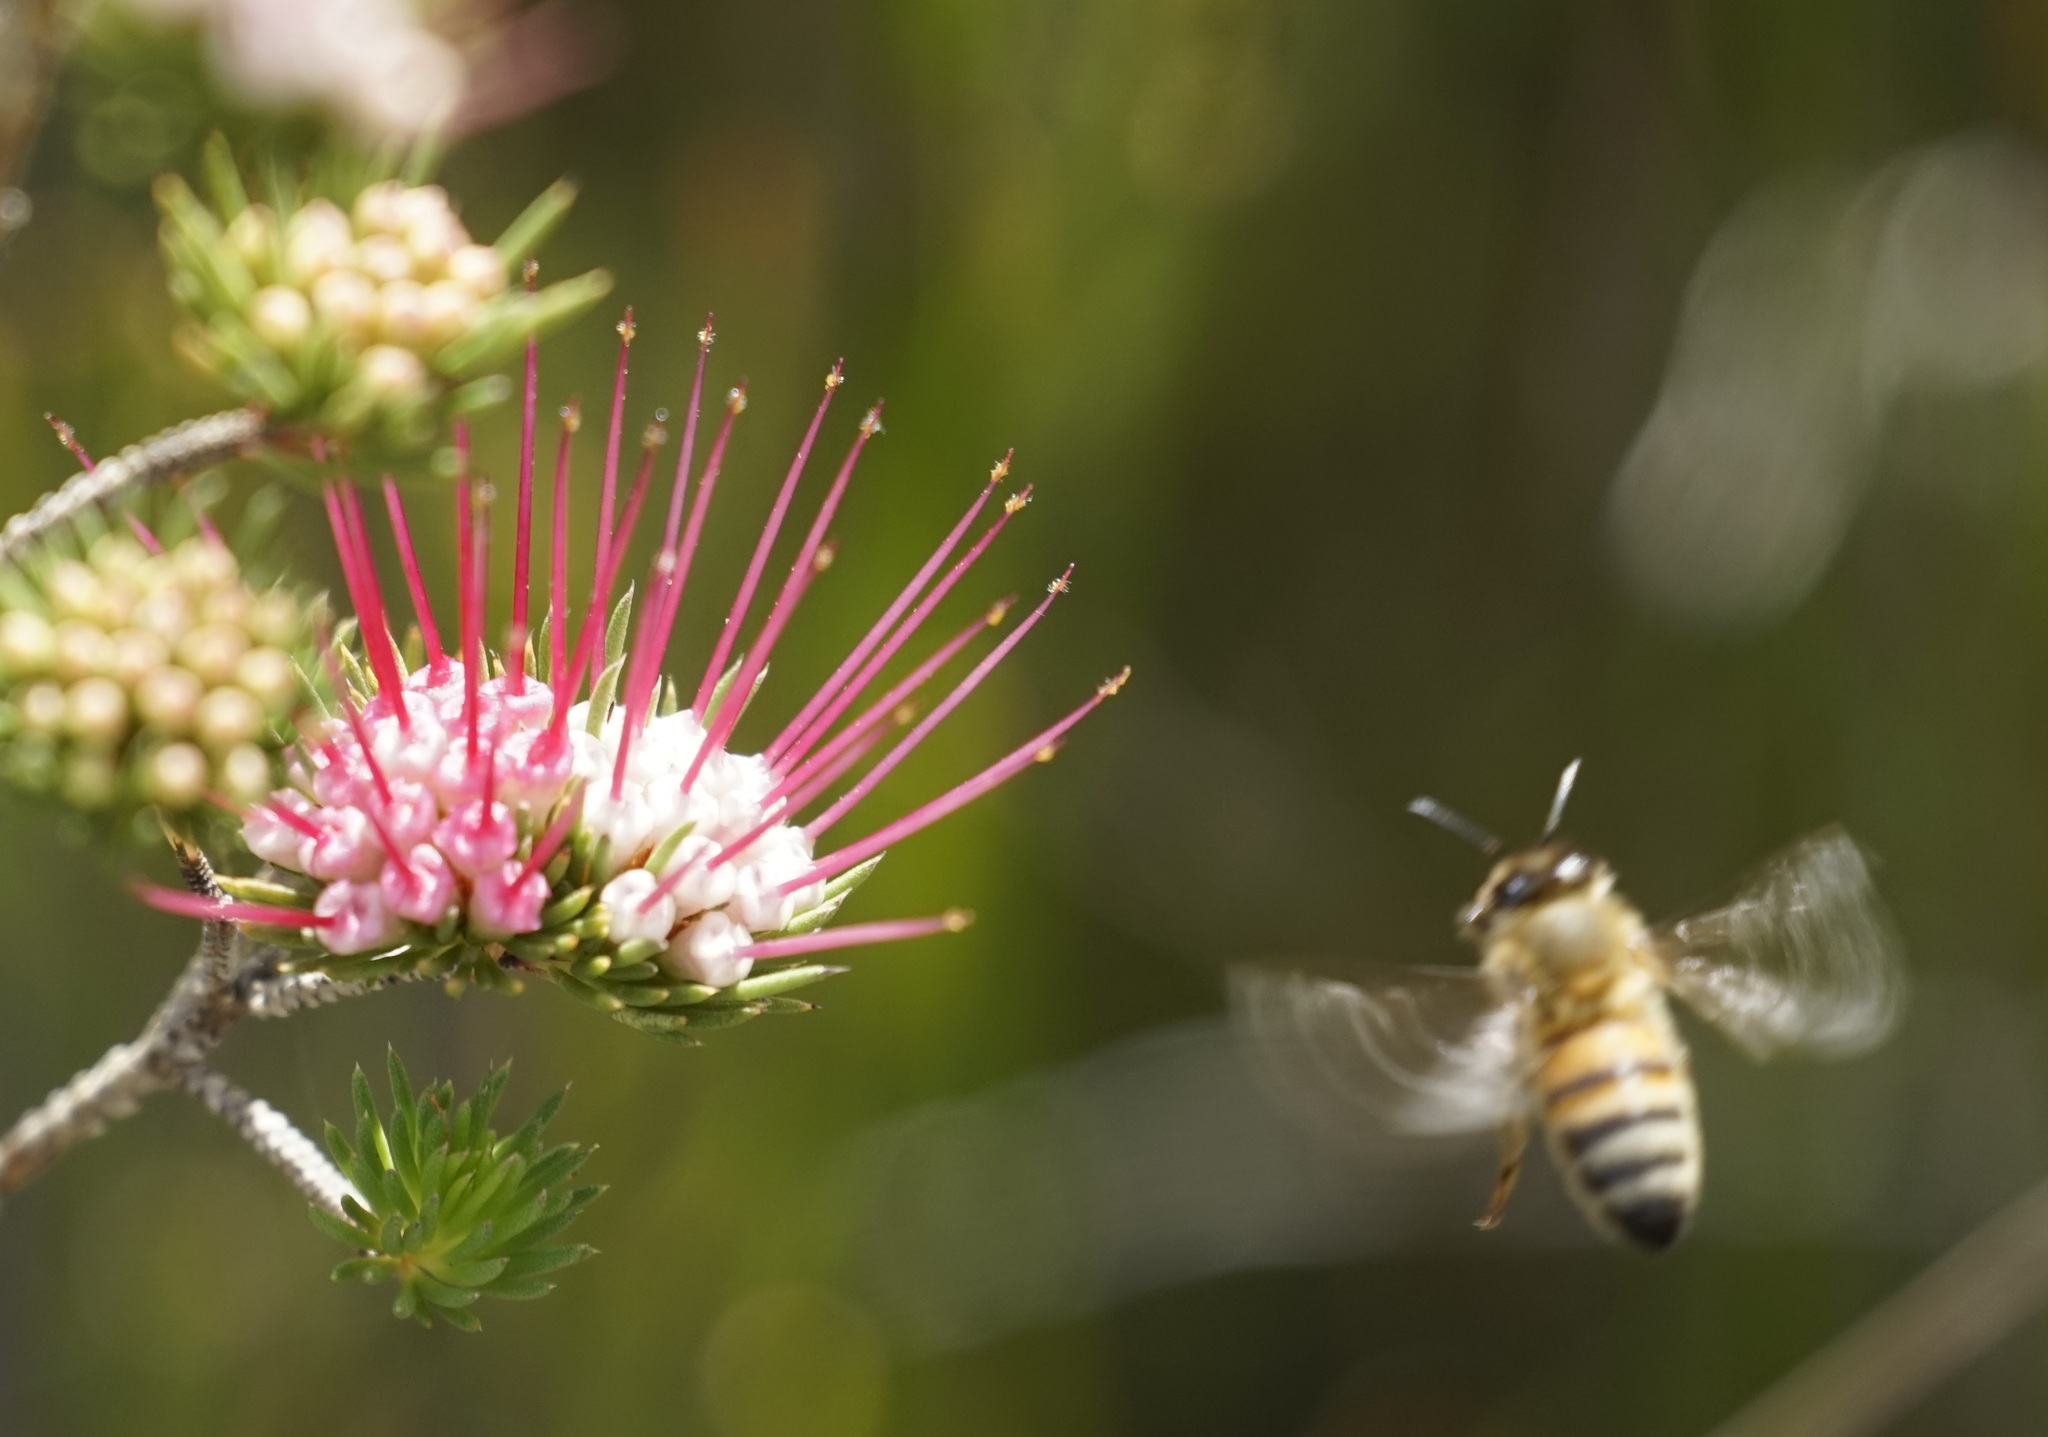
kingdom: Animalia
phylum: Arthropoda
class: Insecta
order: Hymenoptera
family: Apidae
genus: Apis
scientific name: Apis mellifera
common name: Honey bee
